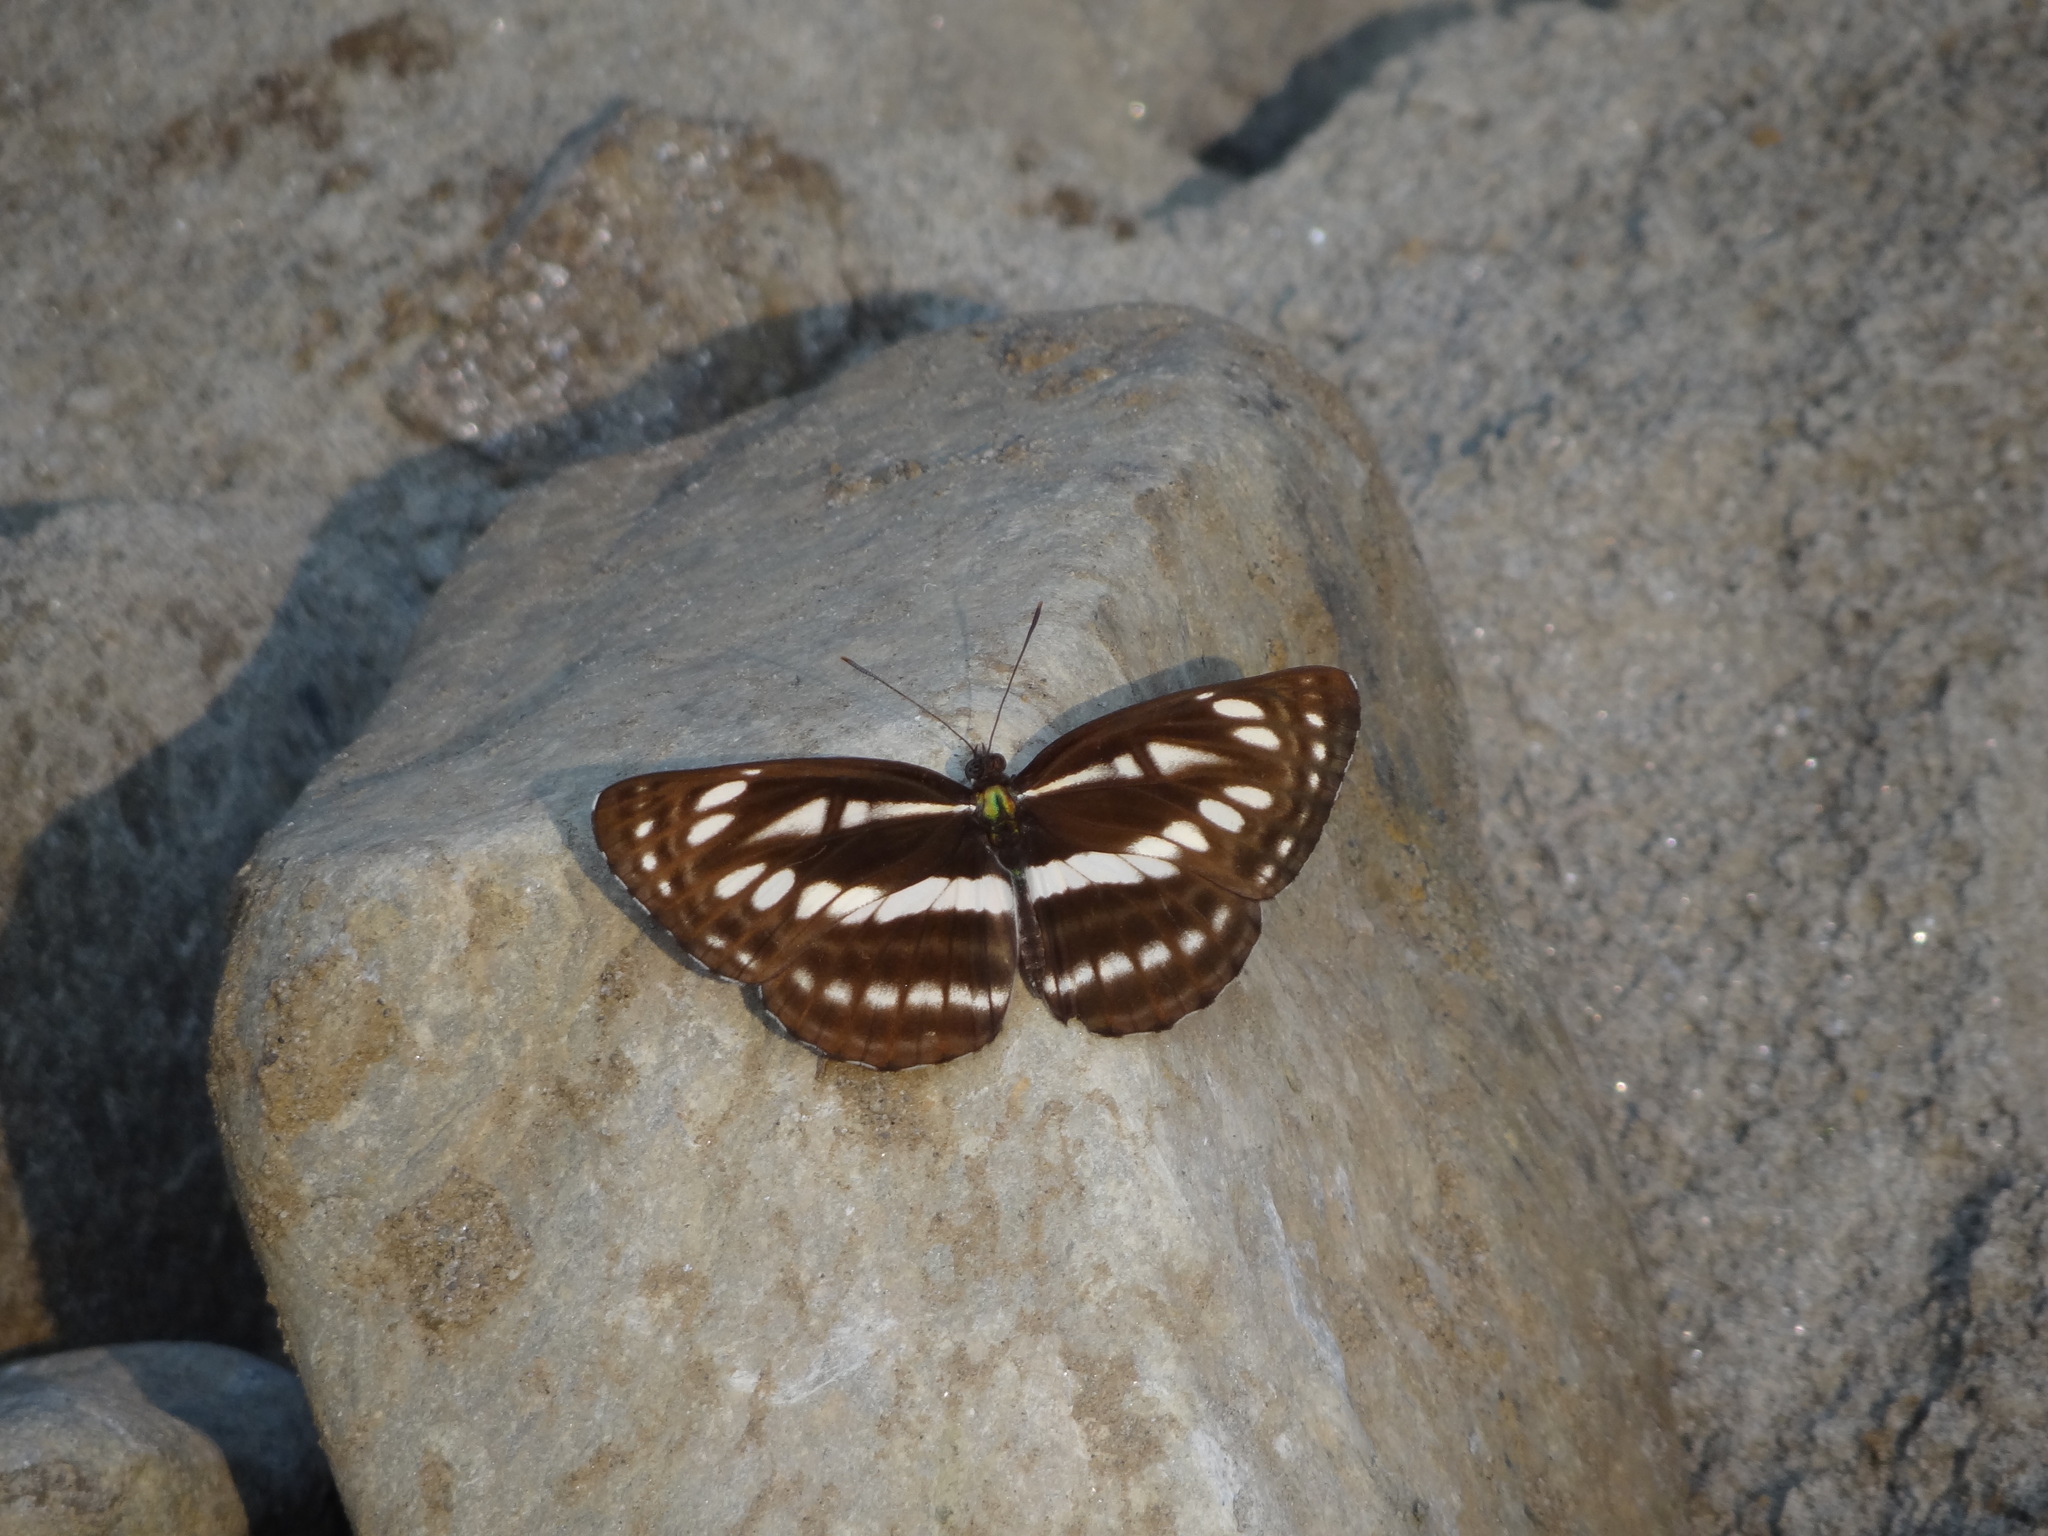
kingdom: Animalia
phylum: Arthropoda
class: Insecta
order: Lepidoptera
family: Nymphalidae
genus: Neptis
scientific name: Neptis hylas
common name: Common sailer
